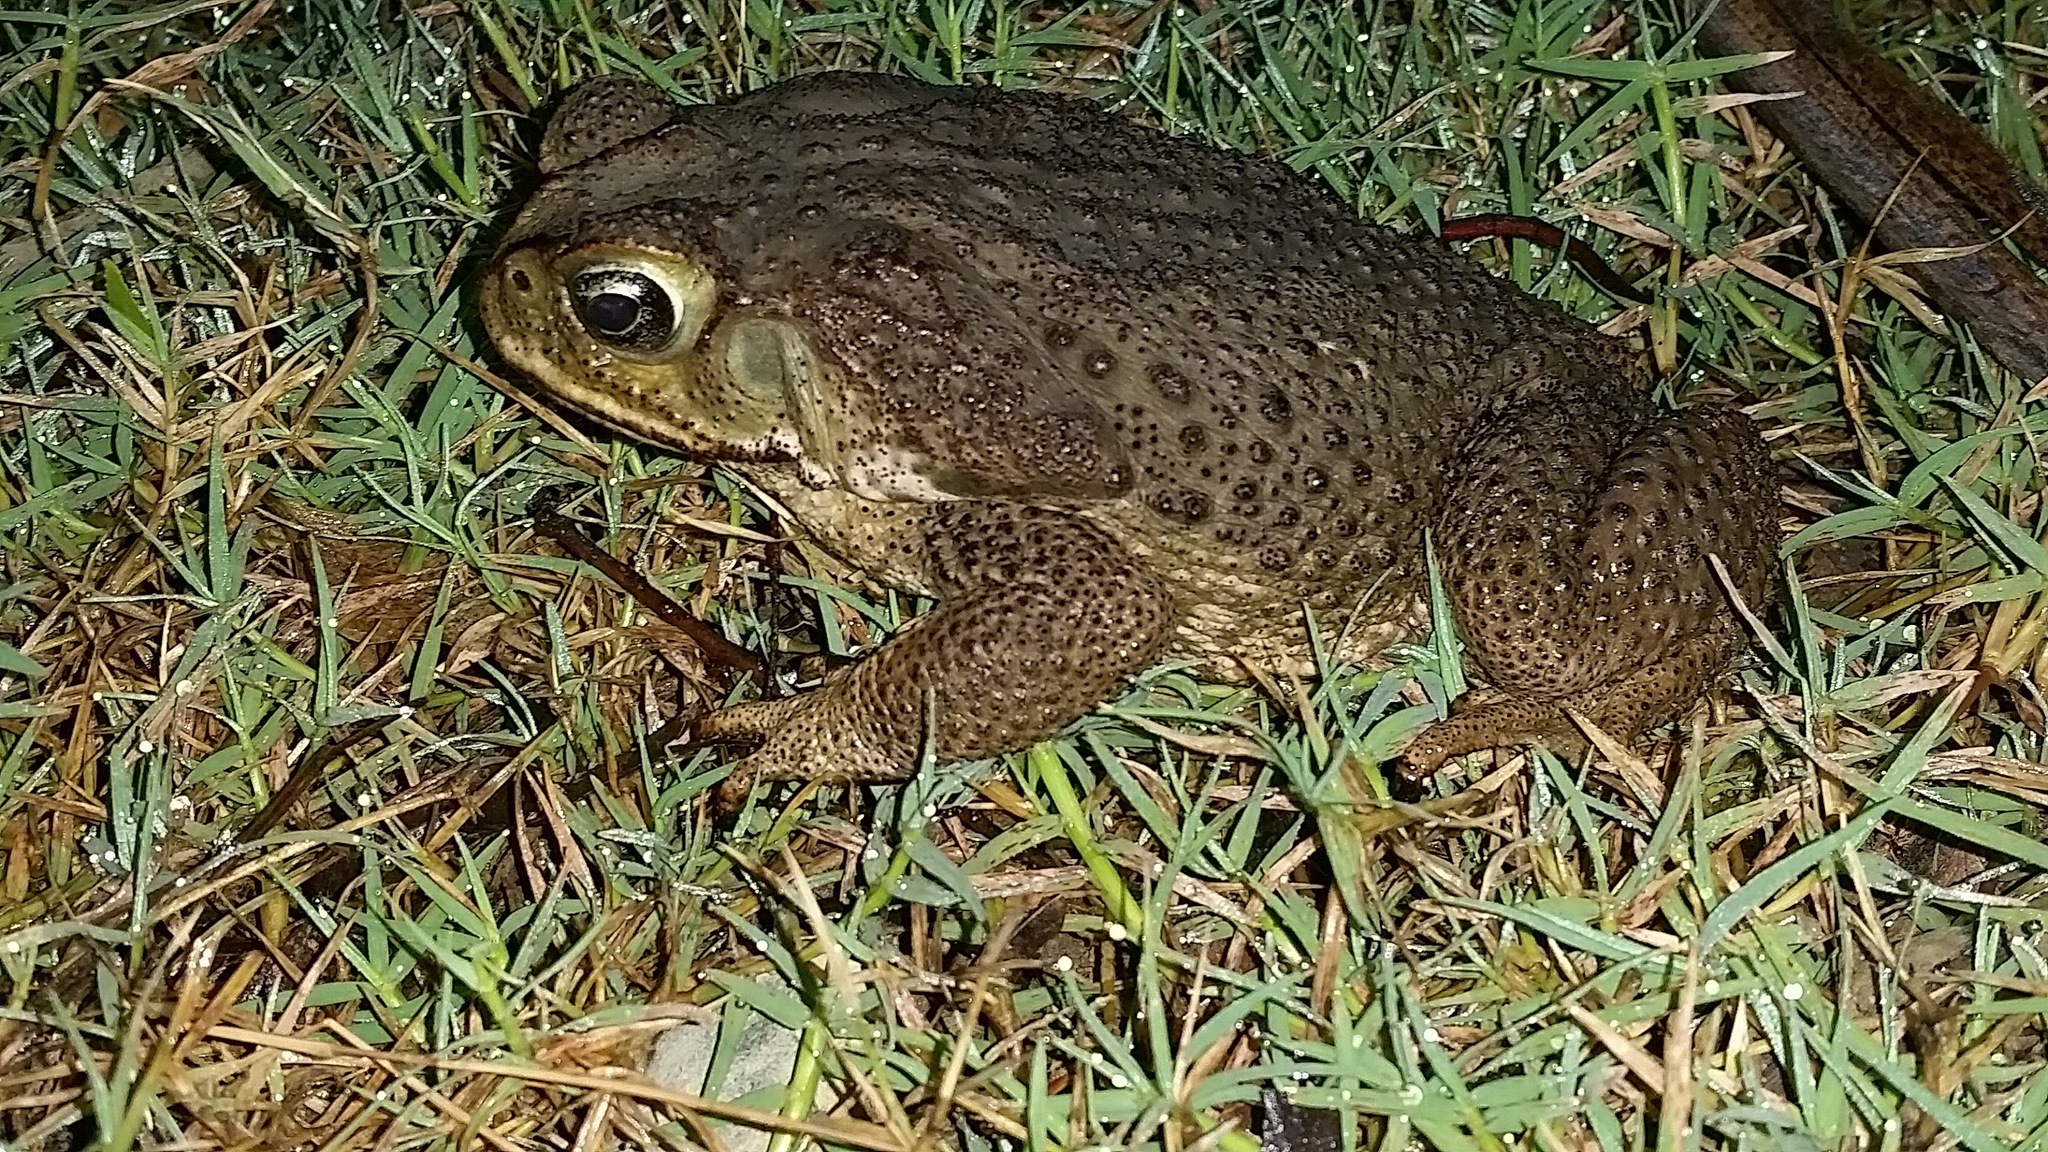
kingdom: Animalia
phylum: Chordata
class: Amphibia
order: Anura
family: Bufonidae
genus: Rhinella
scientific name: Rhinella horribilis
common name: Mesoamerican cane toad
